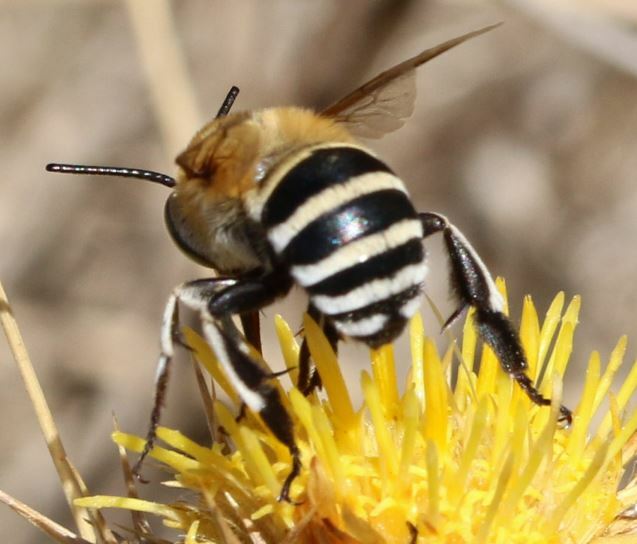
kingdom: Animalia
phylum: Arthropoda
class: Insecta
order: Hymenoptera
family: Apidae
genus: Amegilla
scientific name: Amegilla quadrifasciata
